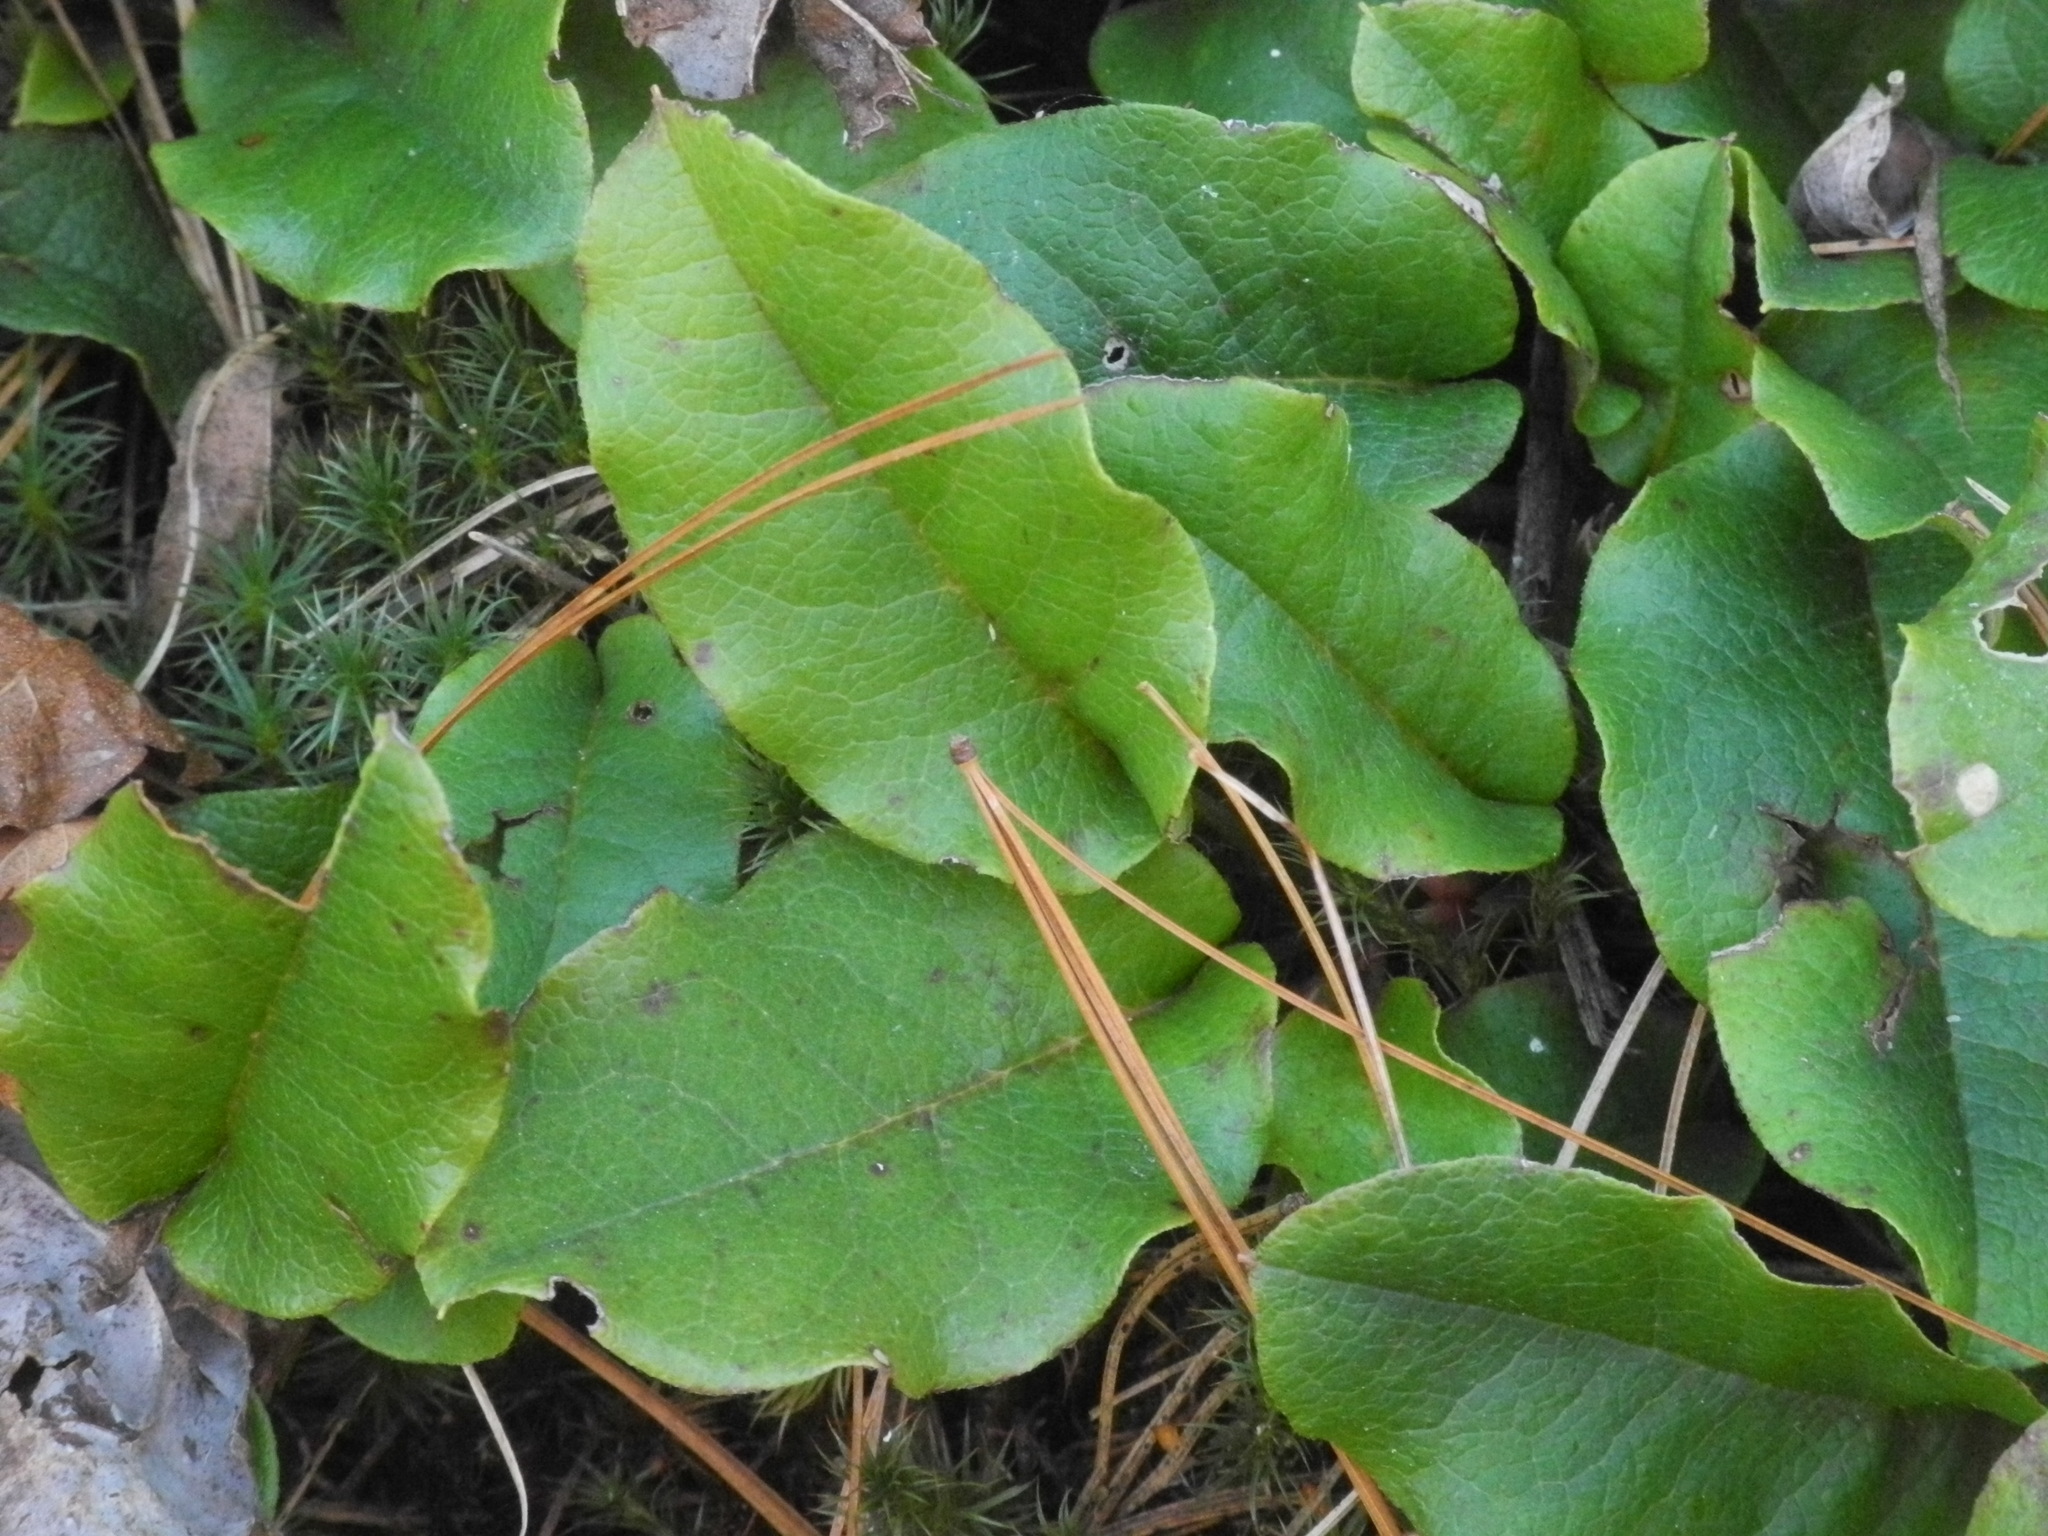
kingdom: Plantae
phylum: Tracheophyta
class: Magnoliopsida
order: Ericales
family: Ericaceae
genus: Epigaea
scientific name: Epigaea repens
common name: Gravelroot
